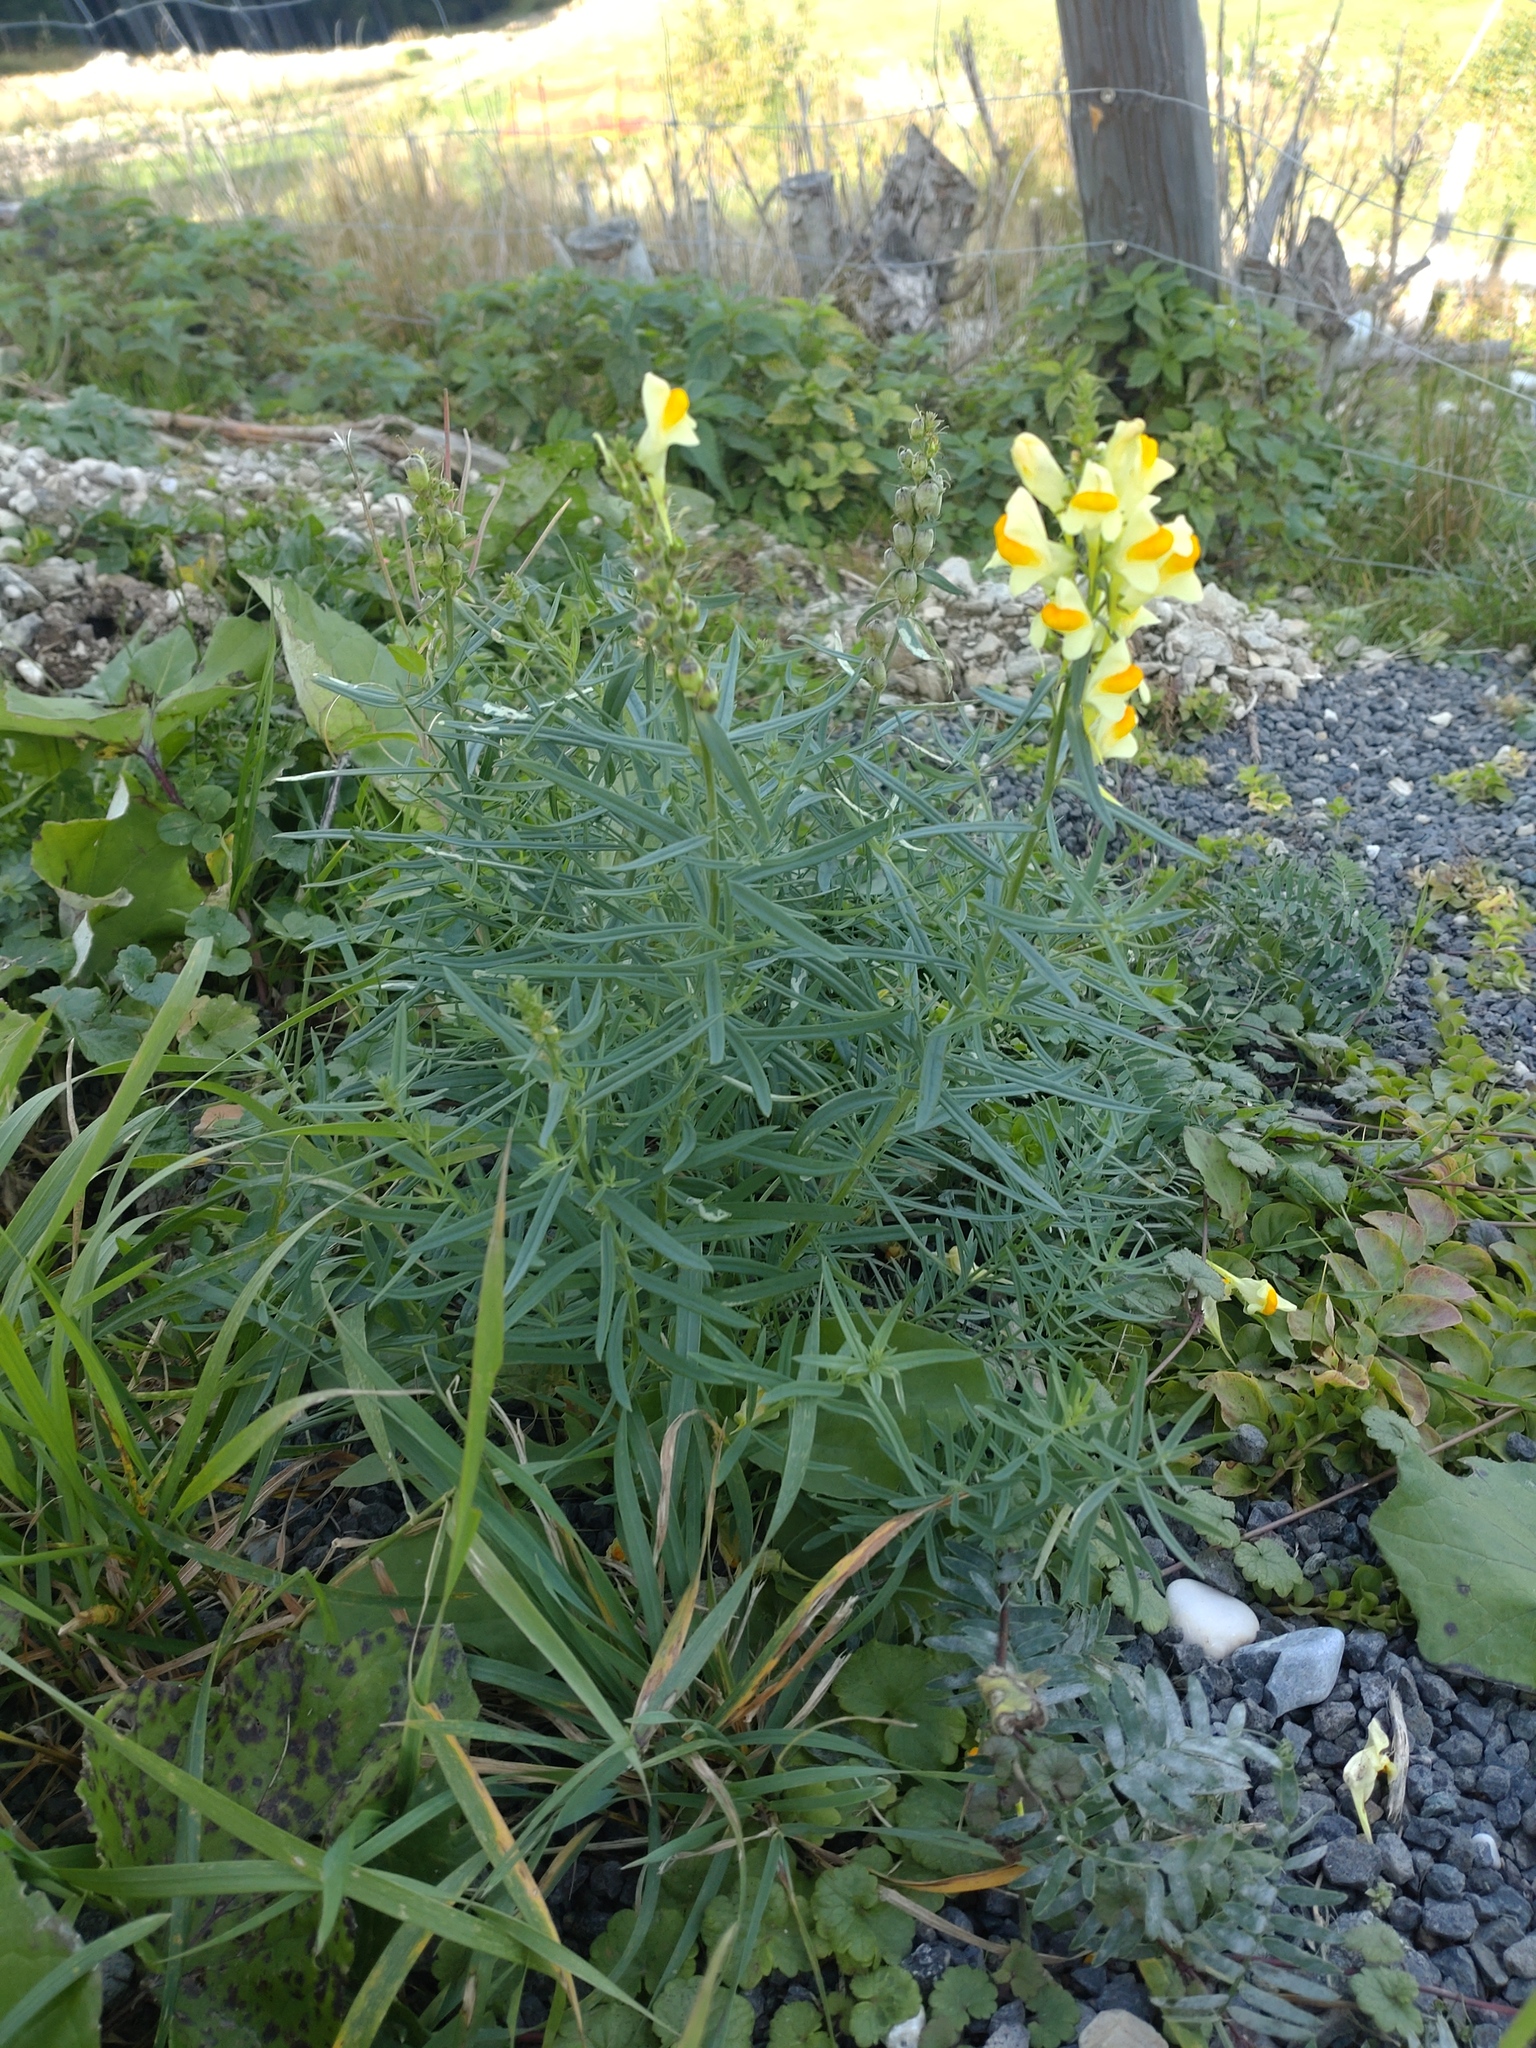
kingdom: Plantae
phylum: Tracheophyta
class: Magnoliopsida
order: Lamiales
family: Plantaginaceae
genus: Linaria
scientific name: Linaria vulgaris
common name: Butter and eggs
